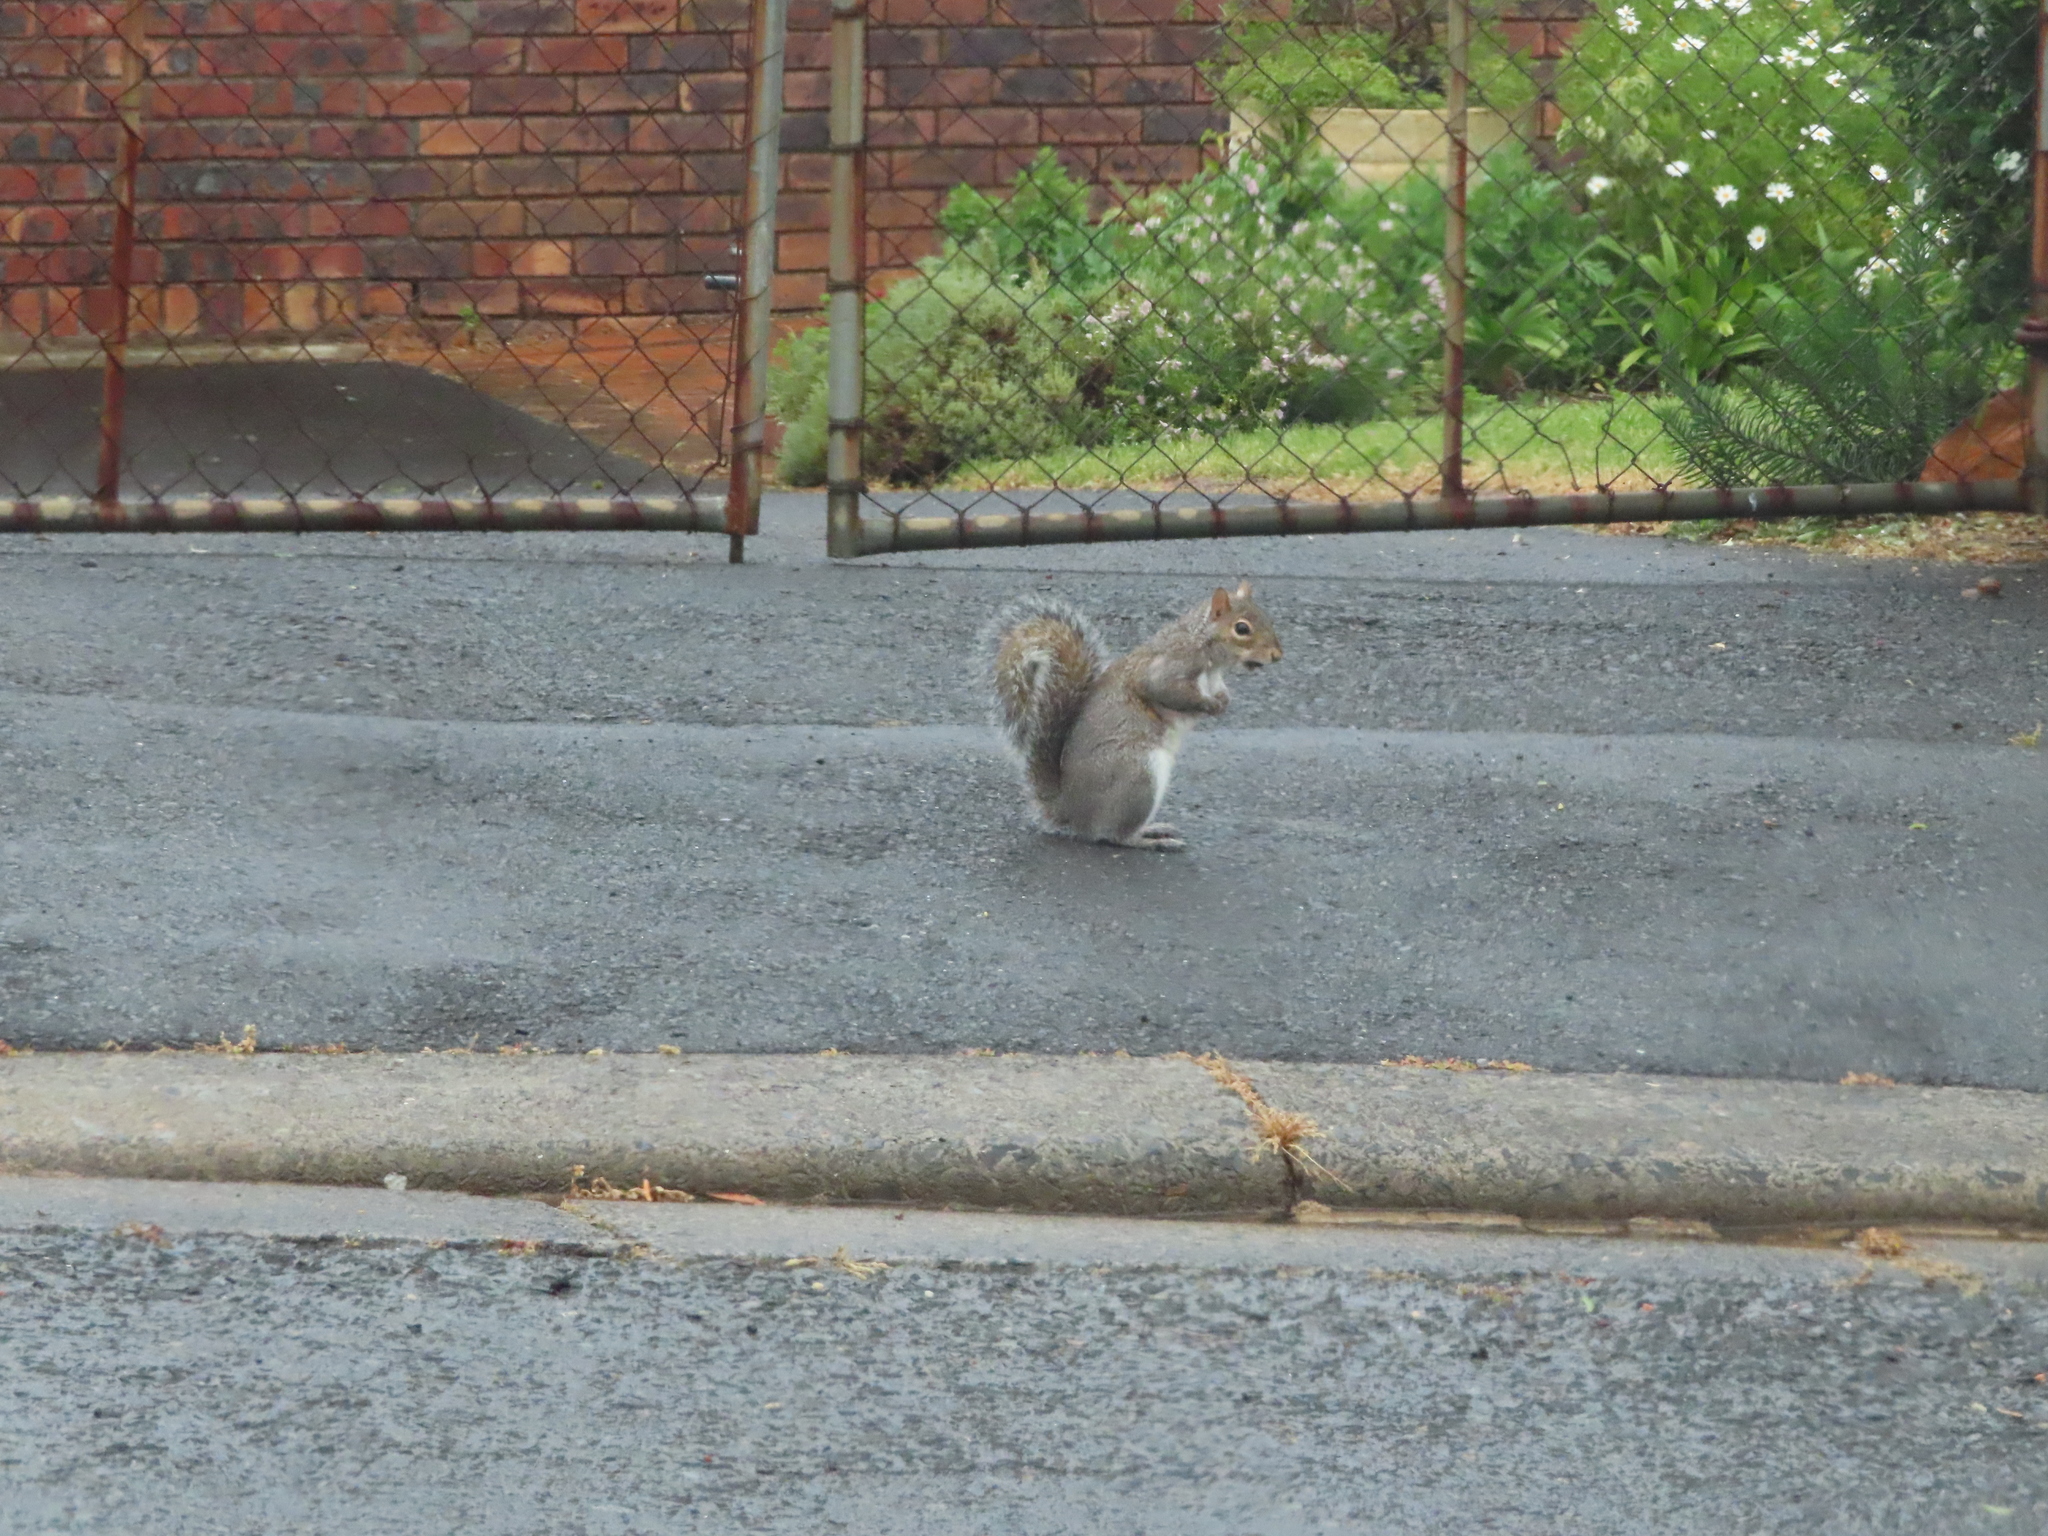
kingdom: Animalia
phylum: Chordata
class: Mammalia
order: Rodentia
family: Sciuridae
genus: Sciurus
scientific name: Sciurus carolinensis
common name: Eastern gray squirrel
